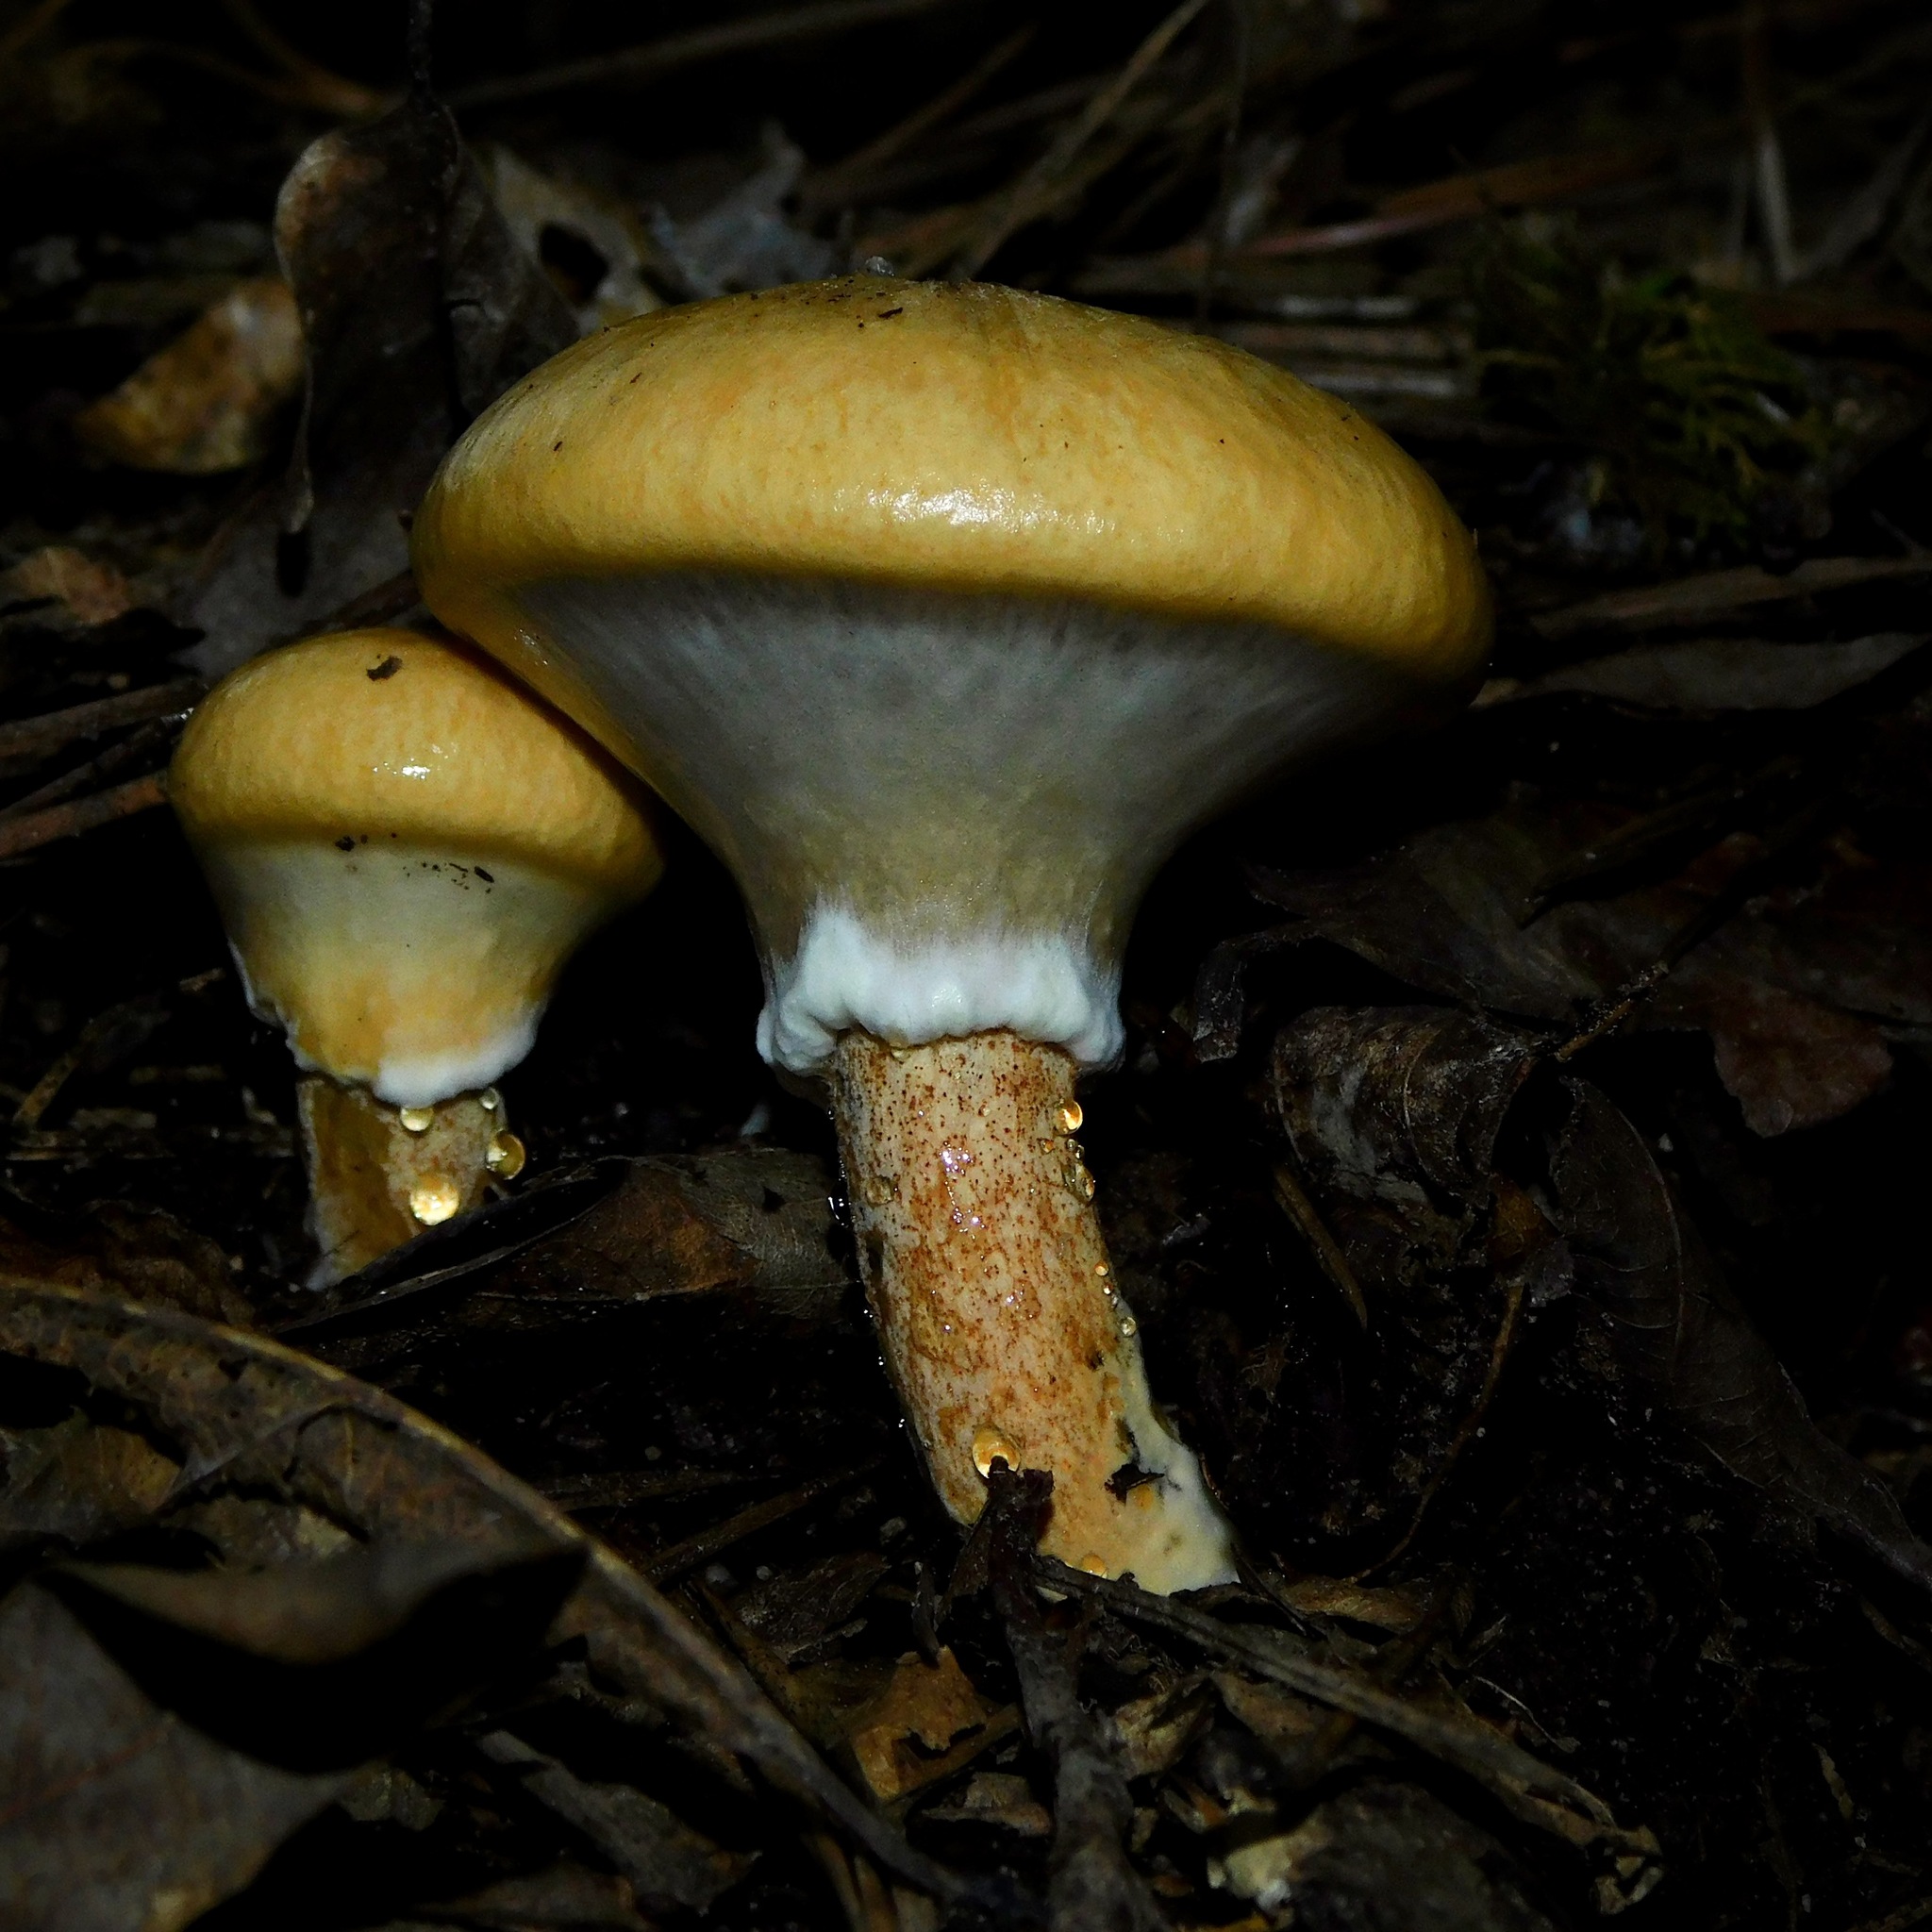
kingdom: Fungi
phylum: Basidiomycota
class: Agaricomycetes
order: Boletales
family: Suillaceae
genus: Suillus
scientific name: Suillus salmonicolor
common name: Slippery jill
